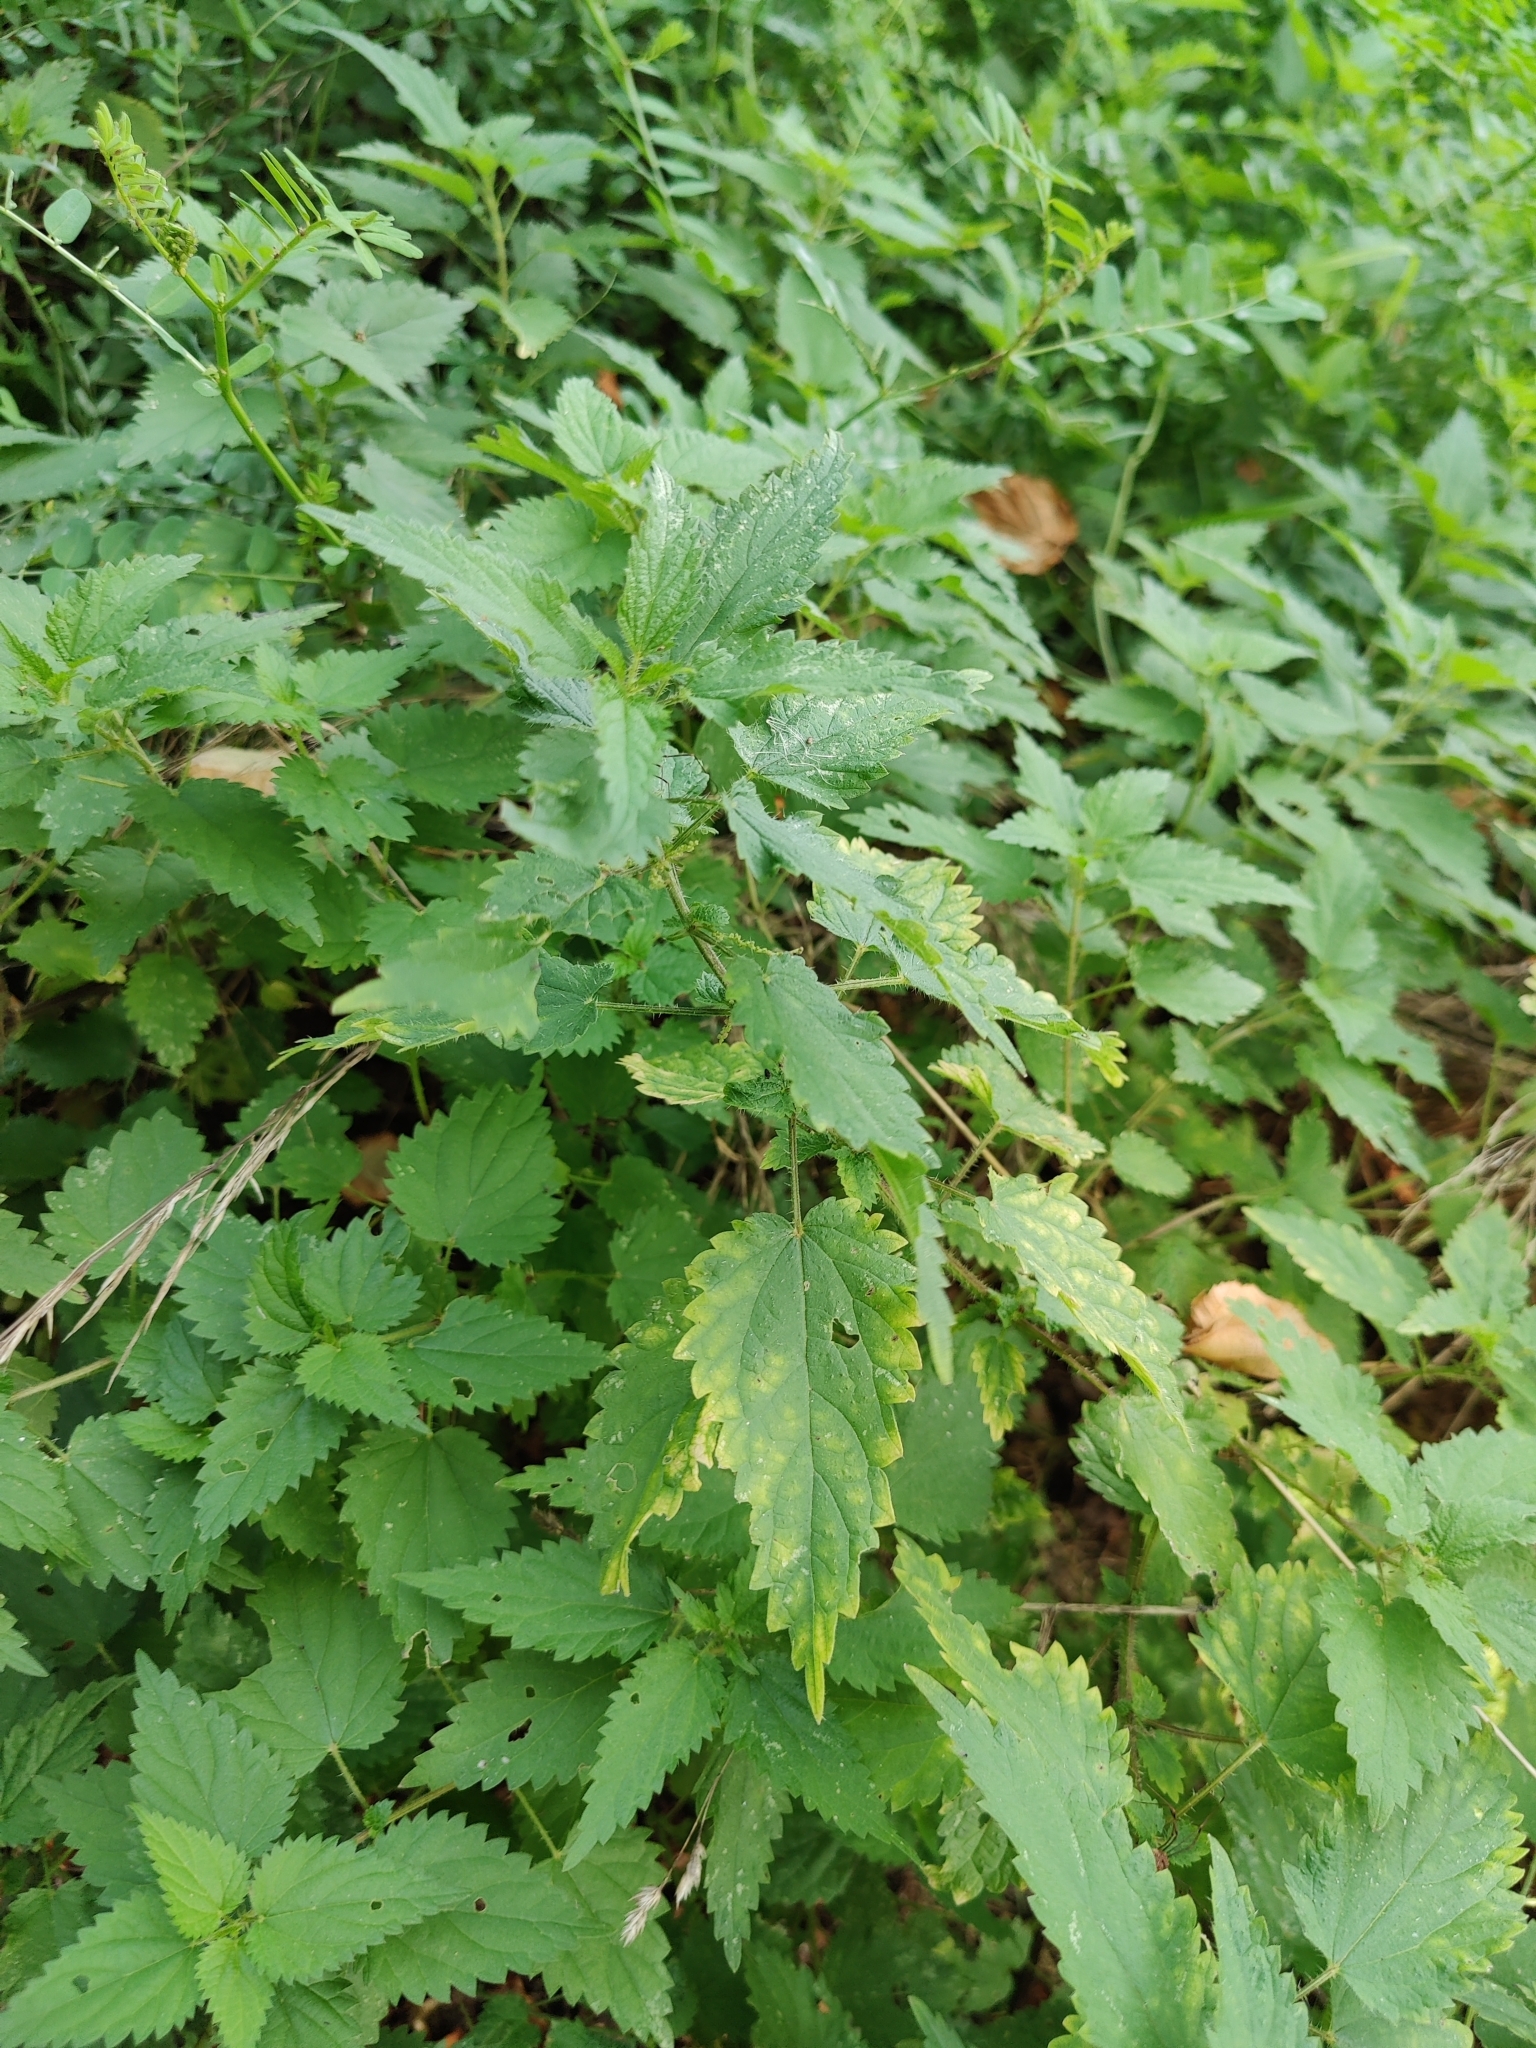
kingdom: Plantae
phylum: Tracheophyta
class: Magnoliopsida
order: Rosales
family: Urticaceae
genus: Urtica
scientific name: Urtica dioica
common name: Common nettle
